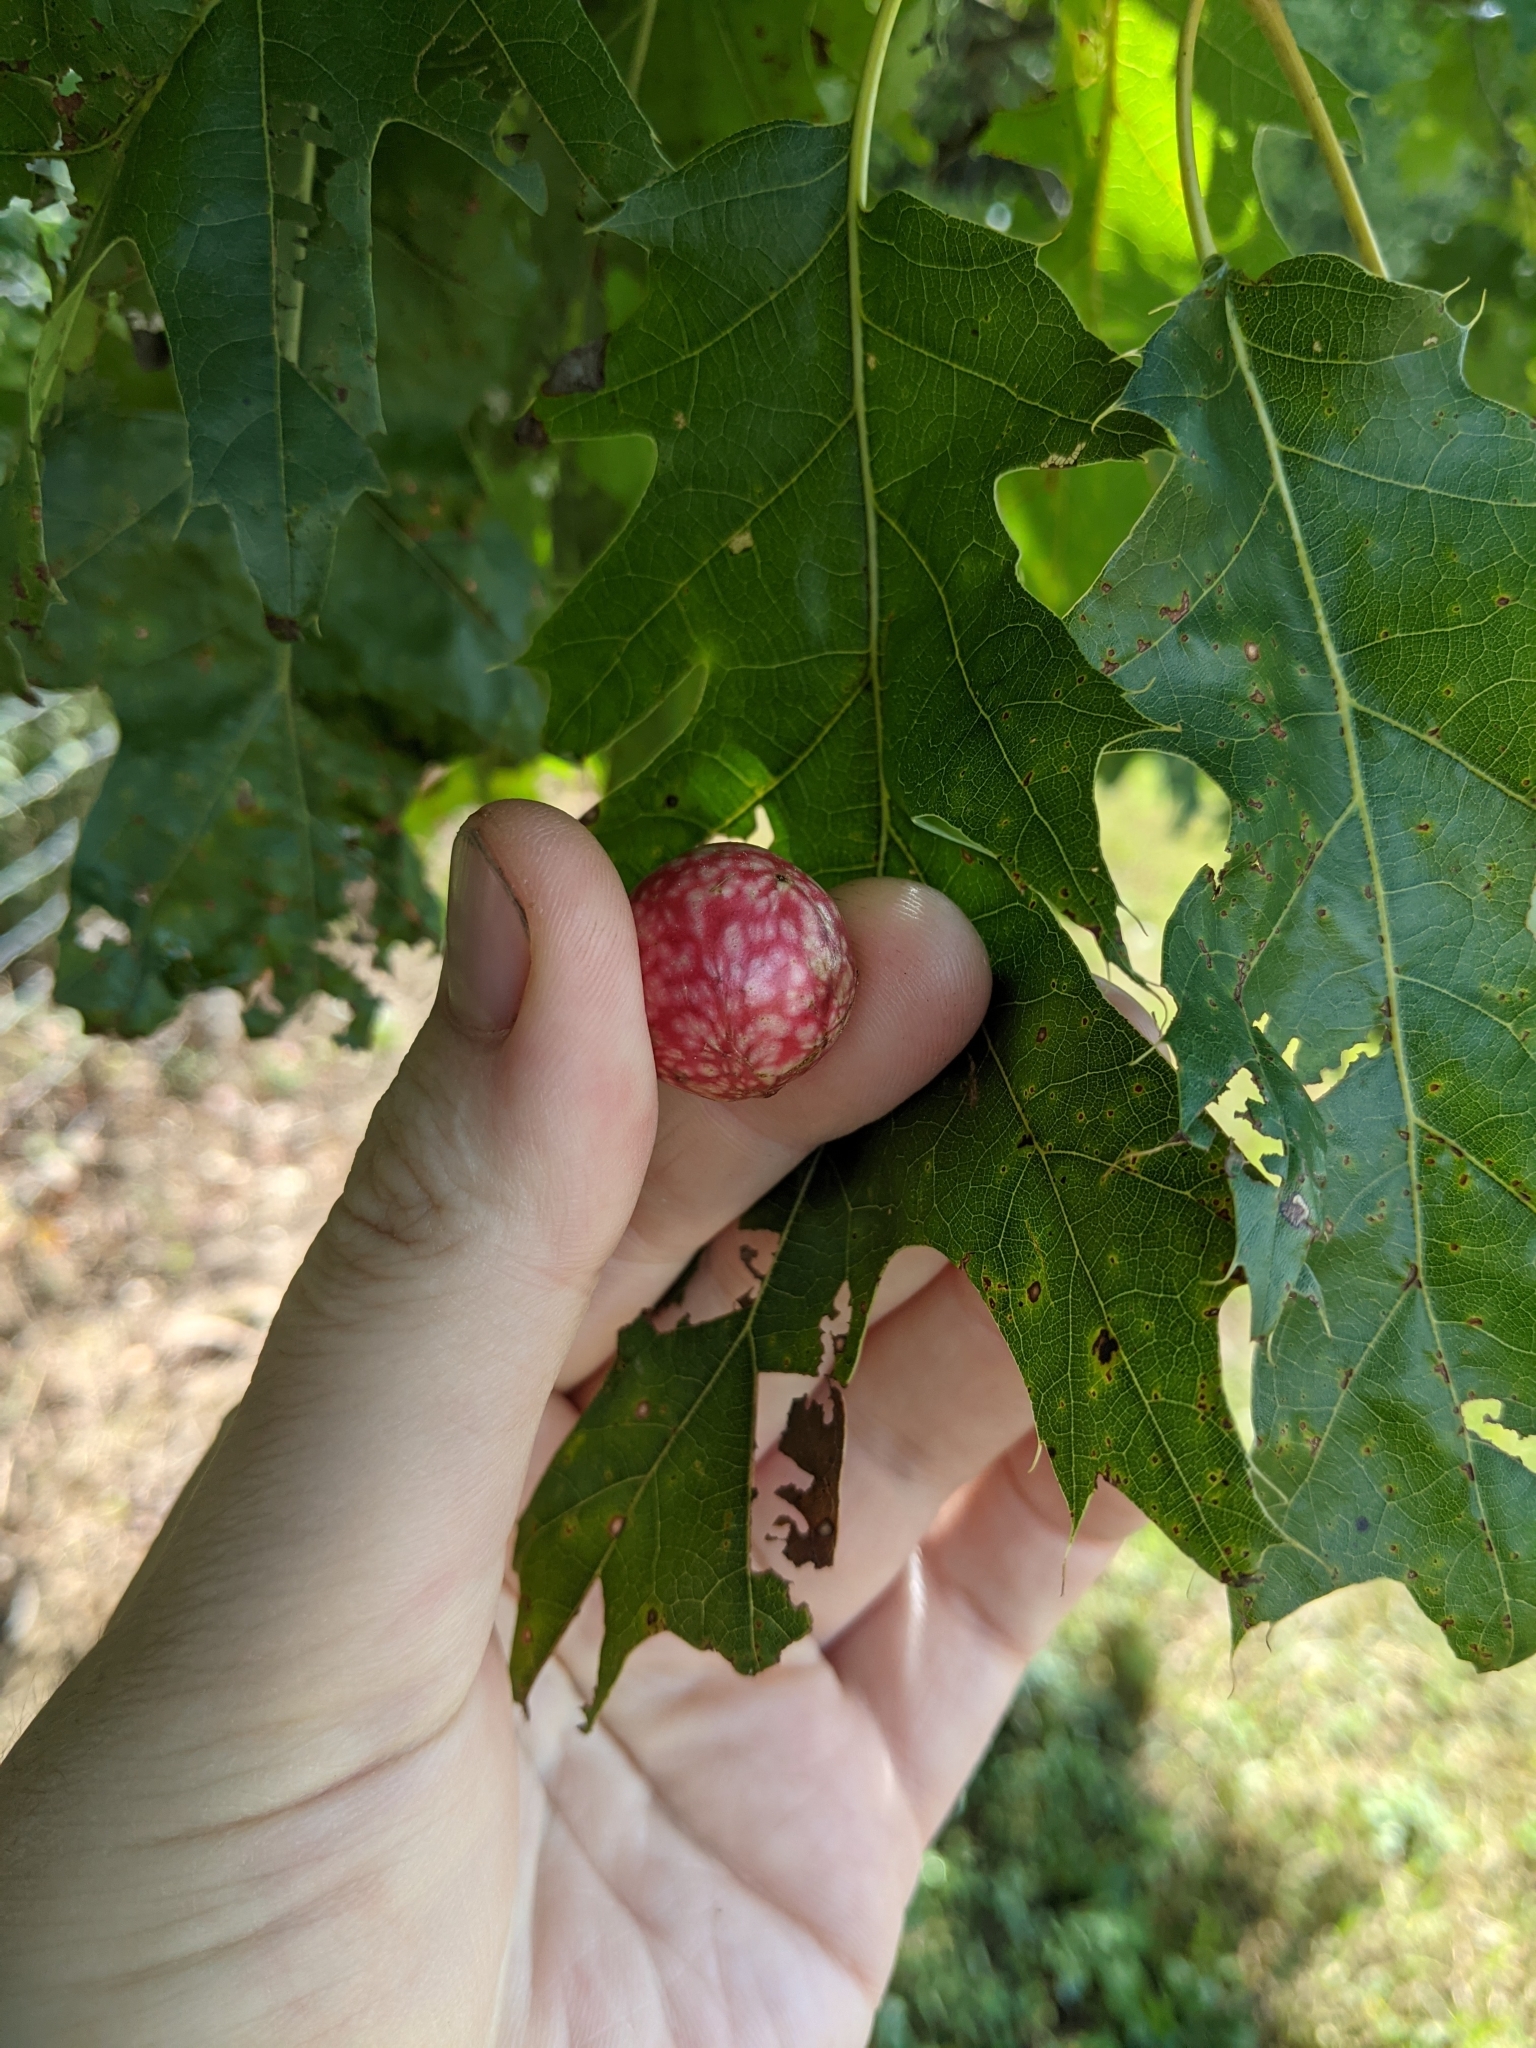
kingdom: Animalia
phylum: Arthropoda
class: Insecta
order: Hymenoptera
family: Cynipidae
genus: Amphibolips
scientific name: Amphibolips
